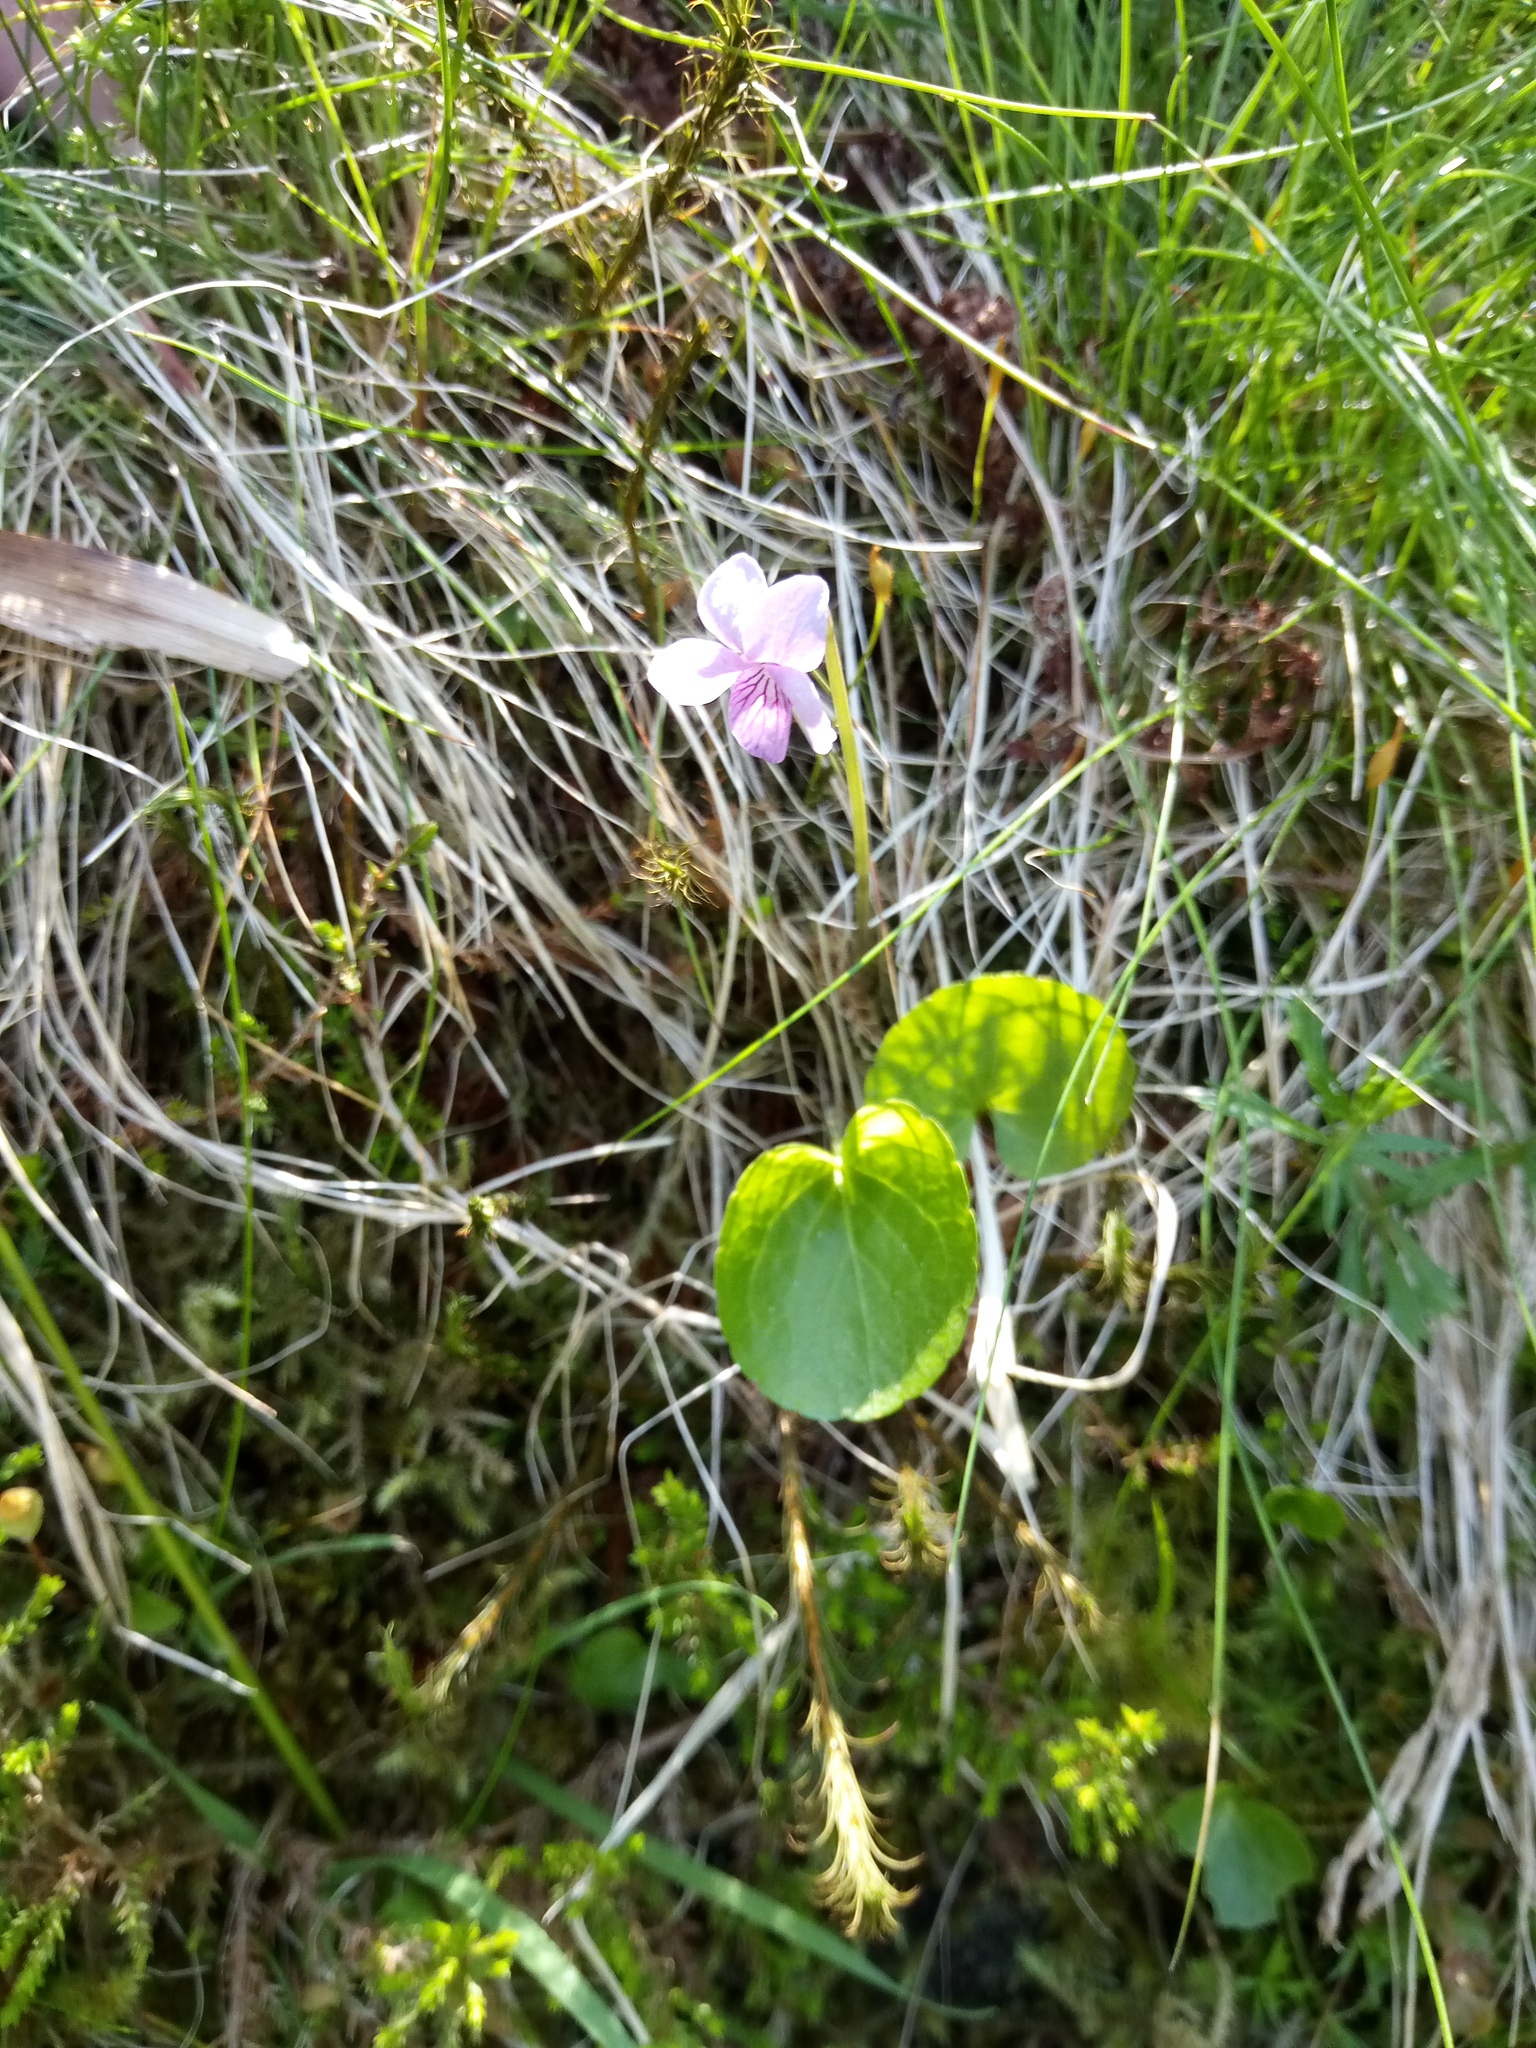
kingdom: Plantae
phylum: Tracheophyta
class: Magnoliopsida
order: Malpighiales
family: Violaceae
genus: Viola
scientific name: Viola palustris
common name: Marsh violet
